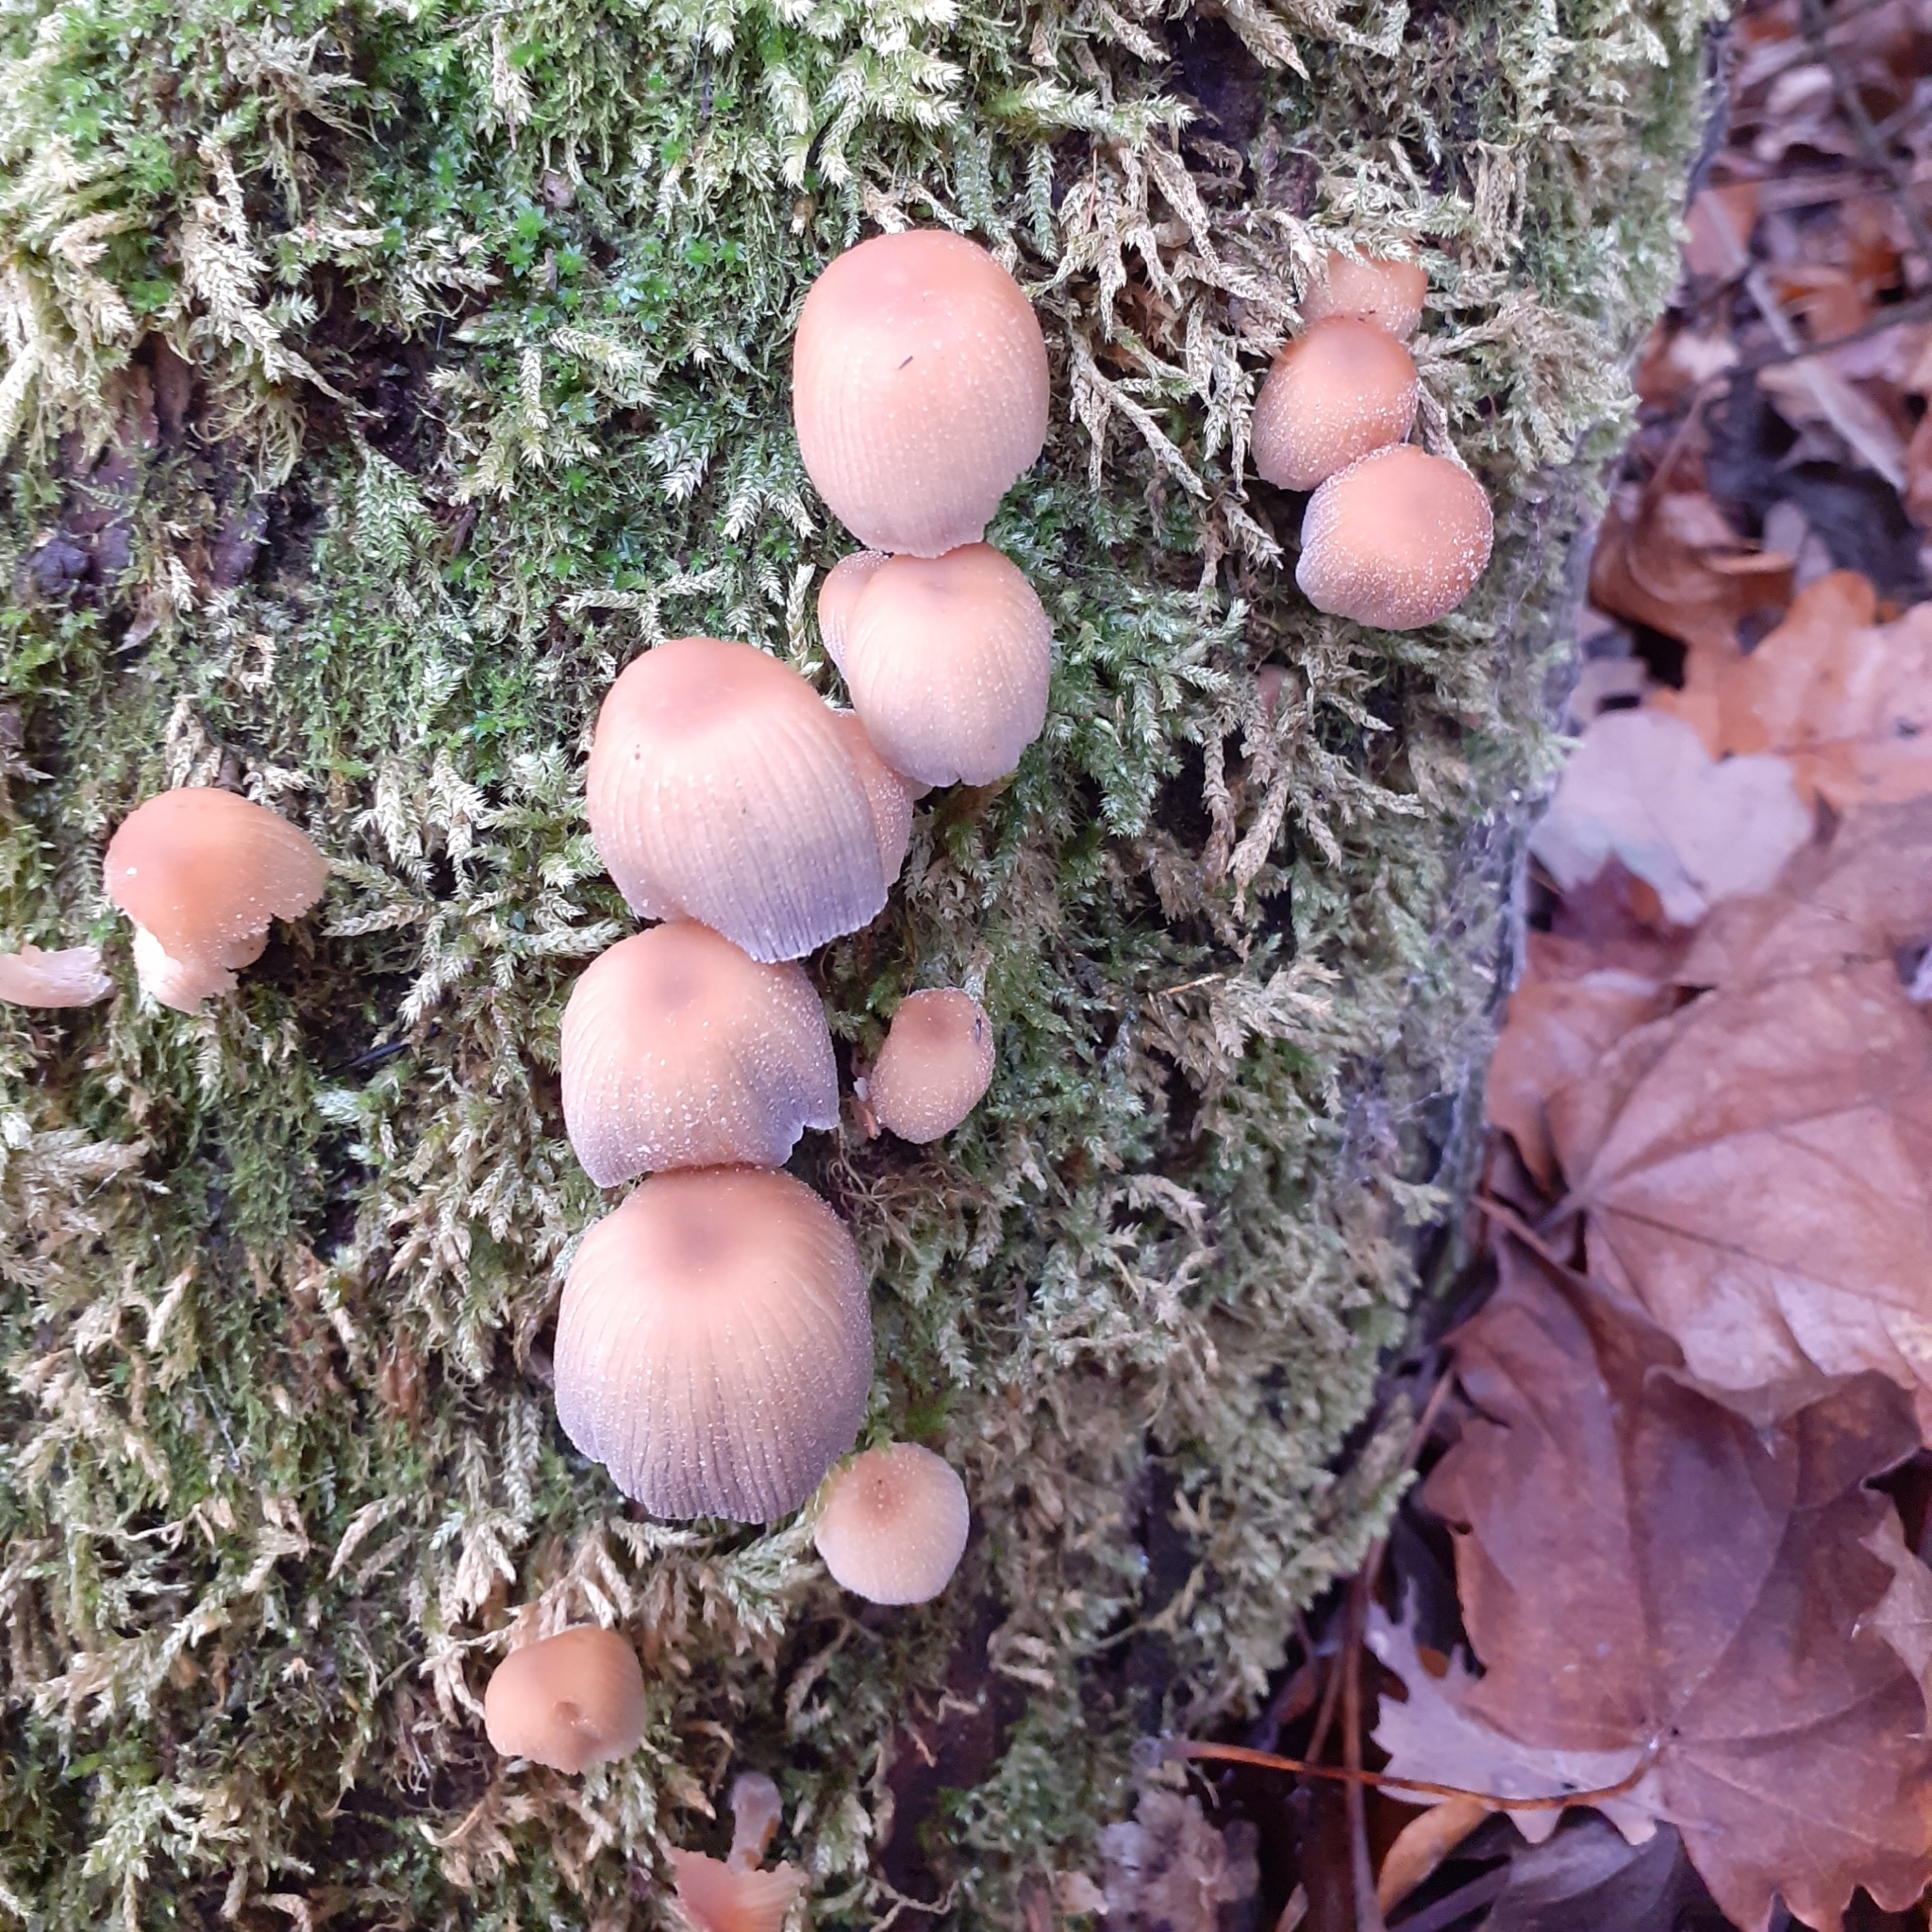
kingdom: Fungi
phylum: Basidiomycota
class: Agaricomycetes
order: Agaricales
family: Psathyrellaceae
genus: Coprinellus
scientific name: Coprinellus micaceus
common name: Glistening ink-cap
